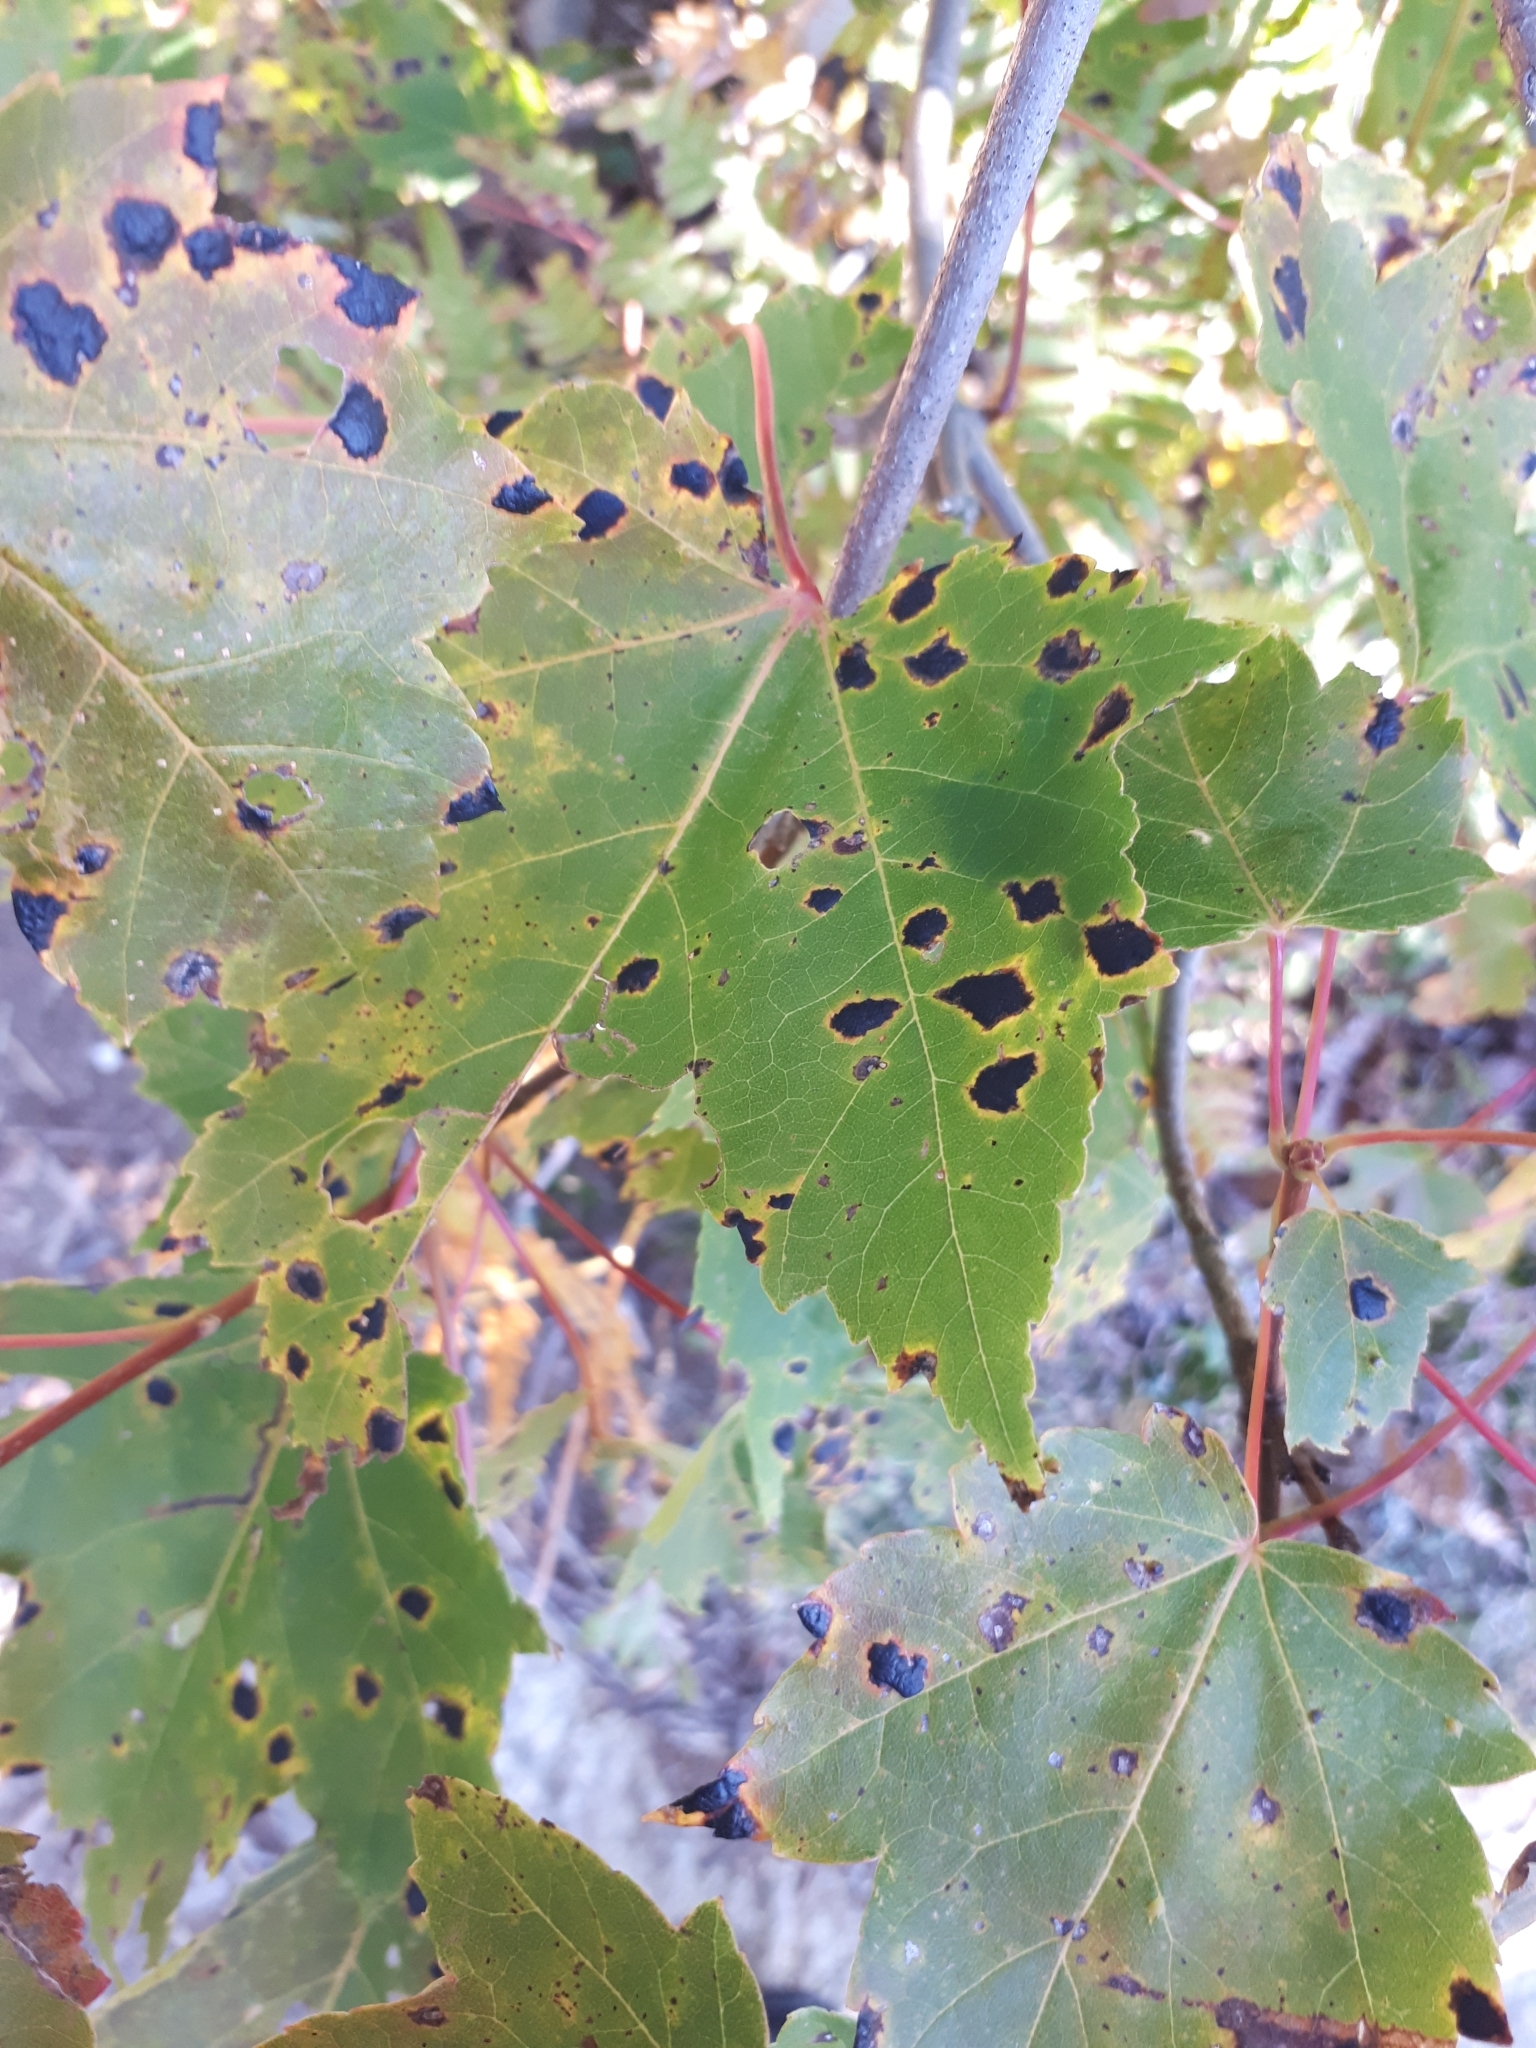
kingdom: Fungi
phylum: Ascomycota
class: Leotiomycetes
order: Rhytismatales
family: Rhytismataceae
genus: Rhytisma
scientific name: Rhytisma americanum
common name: American tar spot
